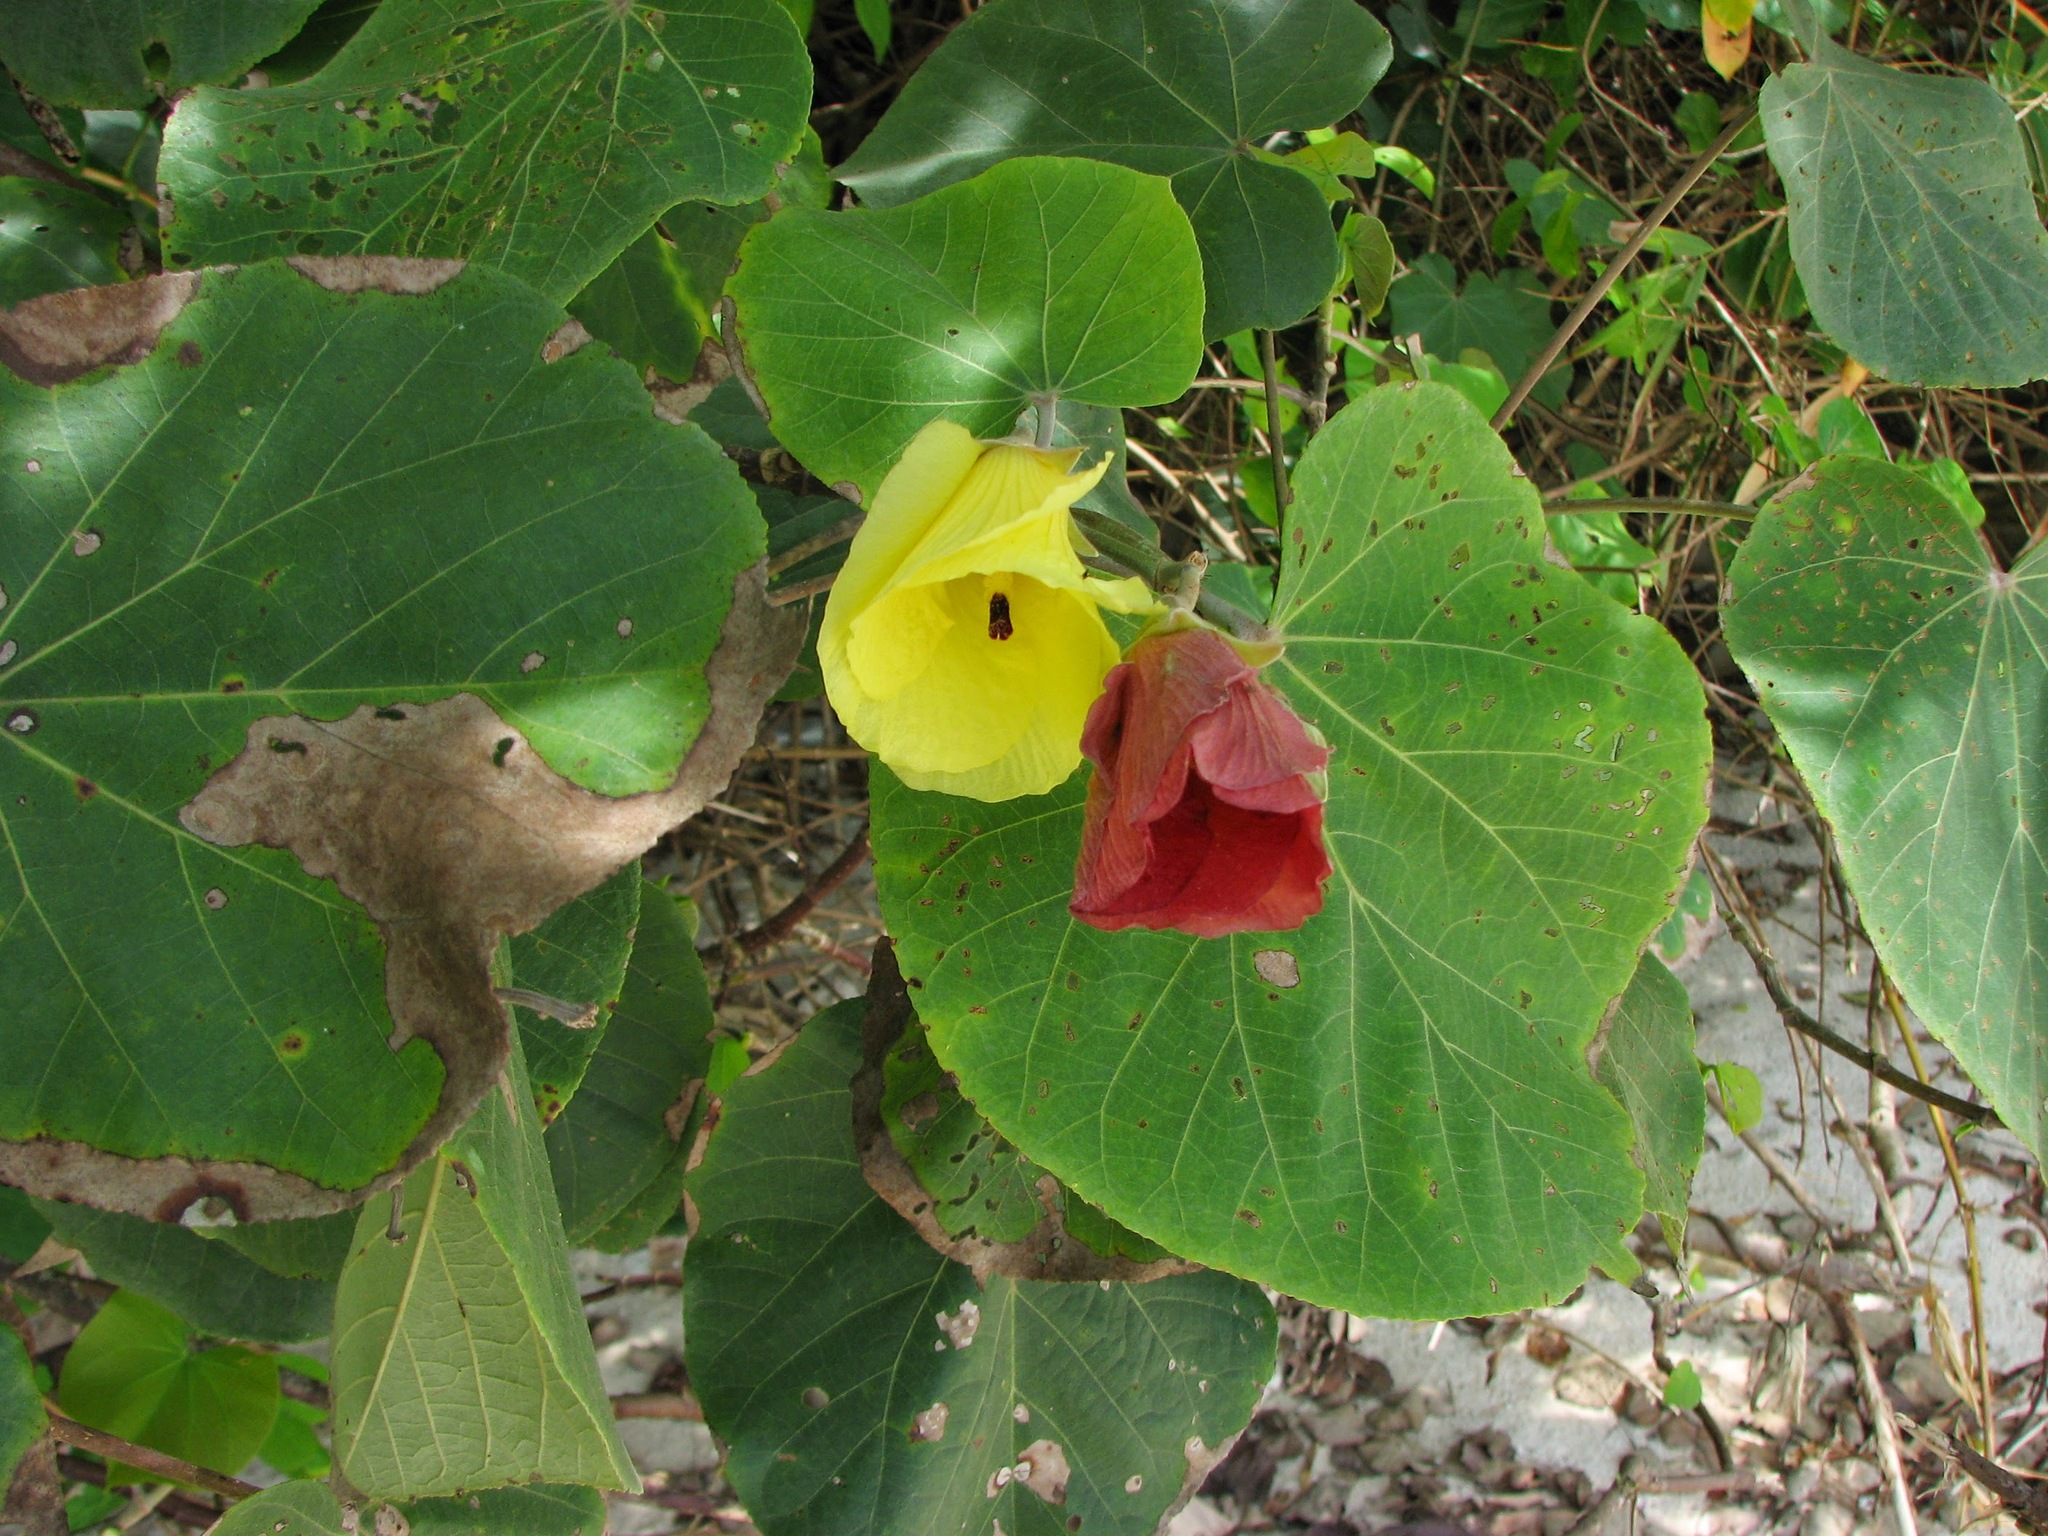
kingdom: Plantae
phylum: Tracheophyta
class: Magnoliopsida
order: Malvales
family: Malvaceae
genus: Talipariti
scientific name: Talipariti tiliaceum
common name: Sea hibiscus
